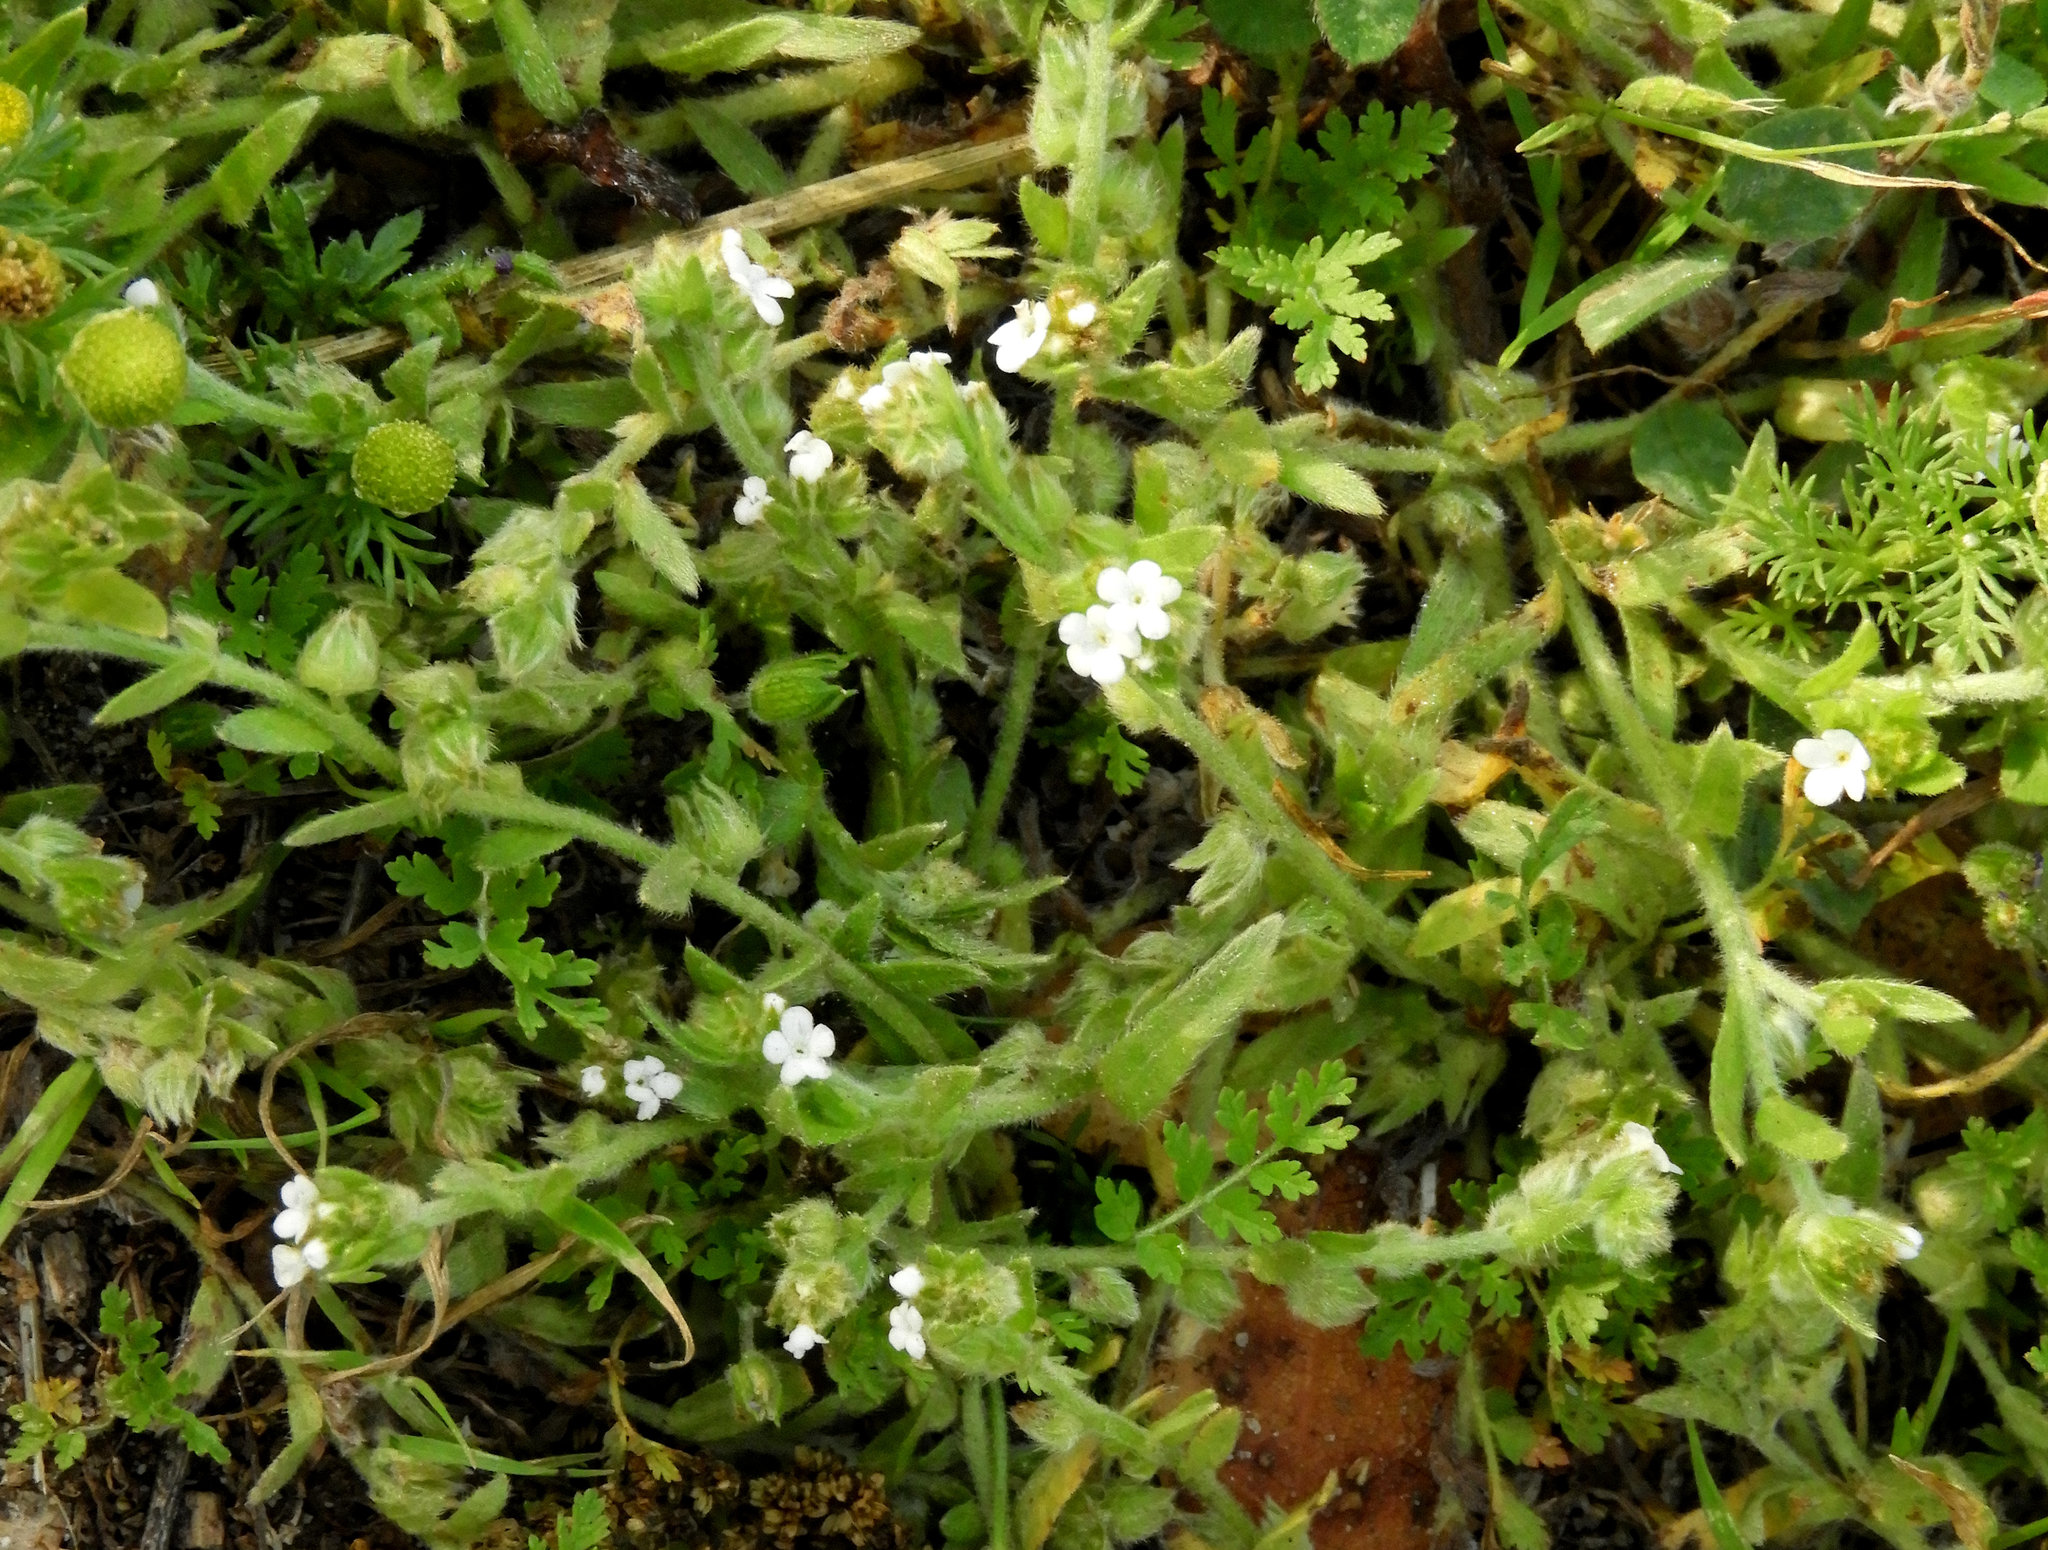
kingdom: Plantae
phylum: Tracheophyta
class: Magnoliopsida
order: Boraginales
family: Boraginaceae
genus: Plagiobothrys
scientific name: Plagiobothrys nothofulvus
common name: Popcorn-flower
